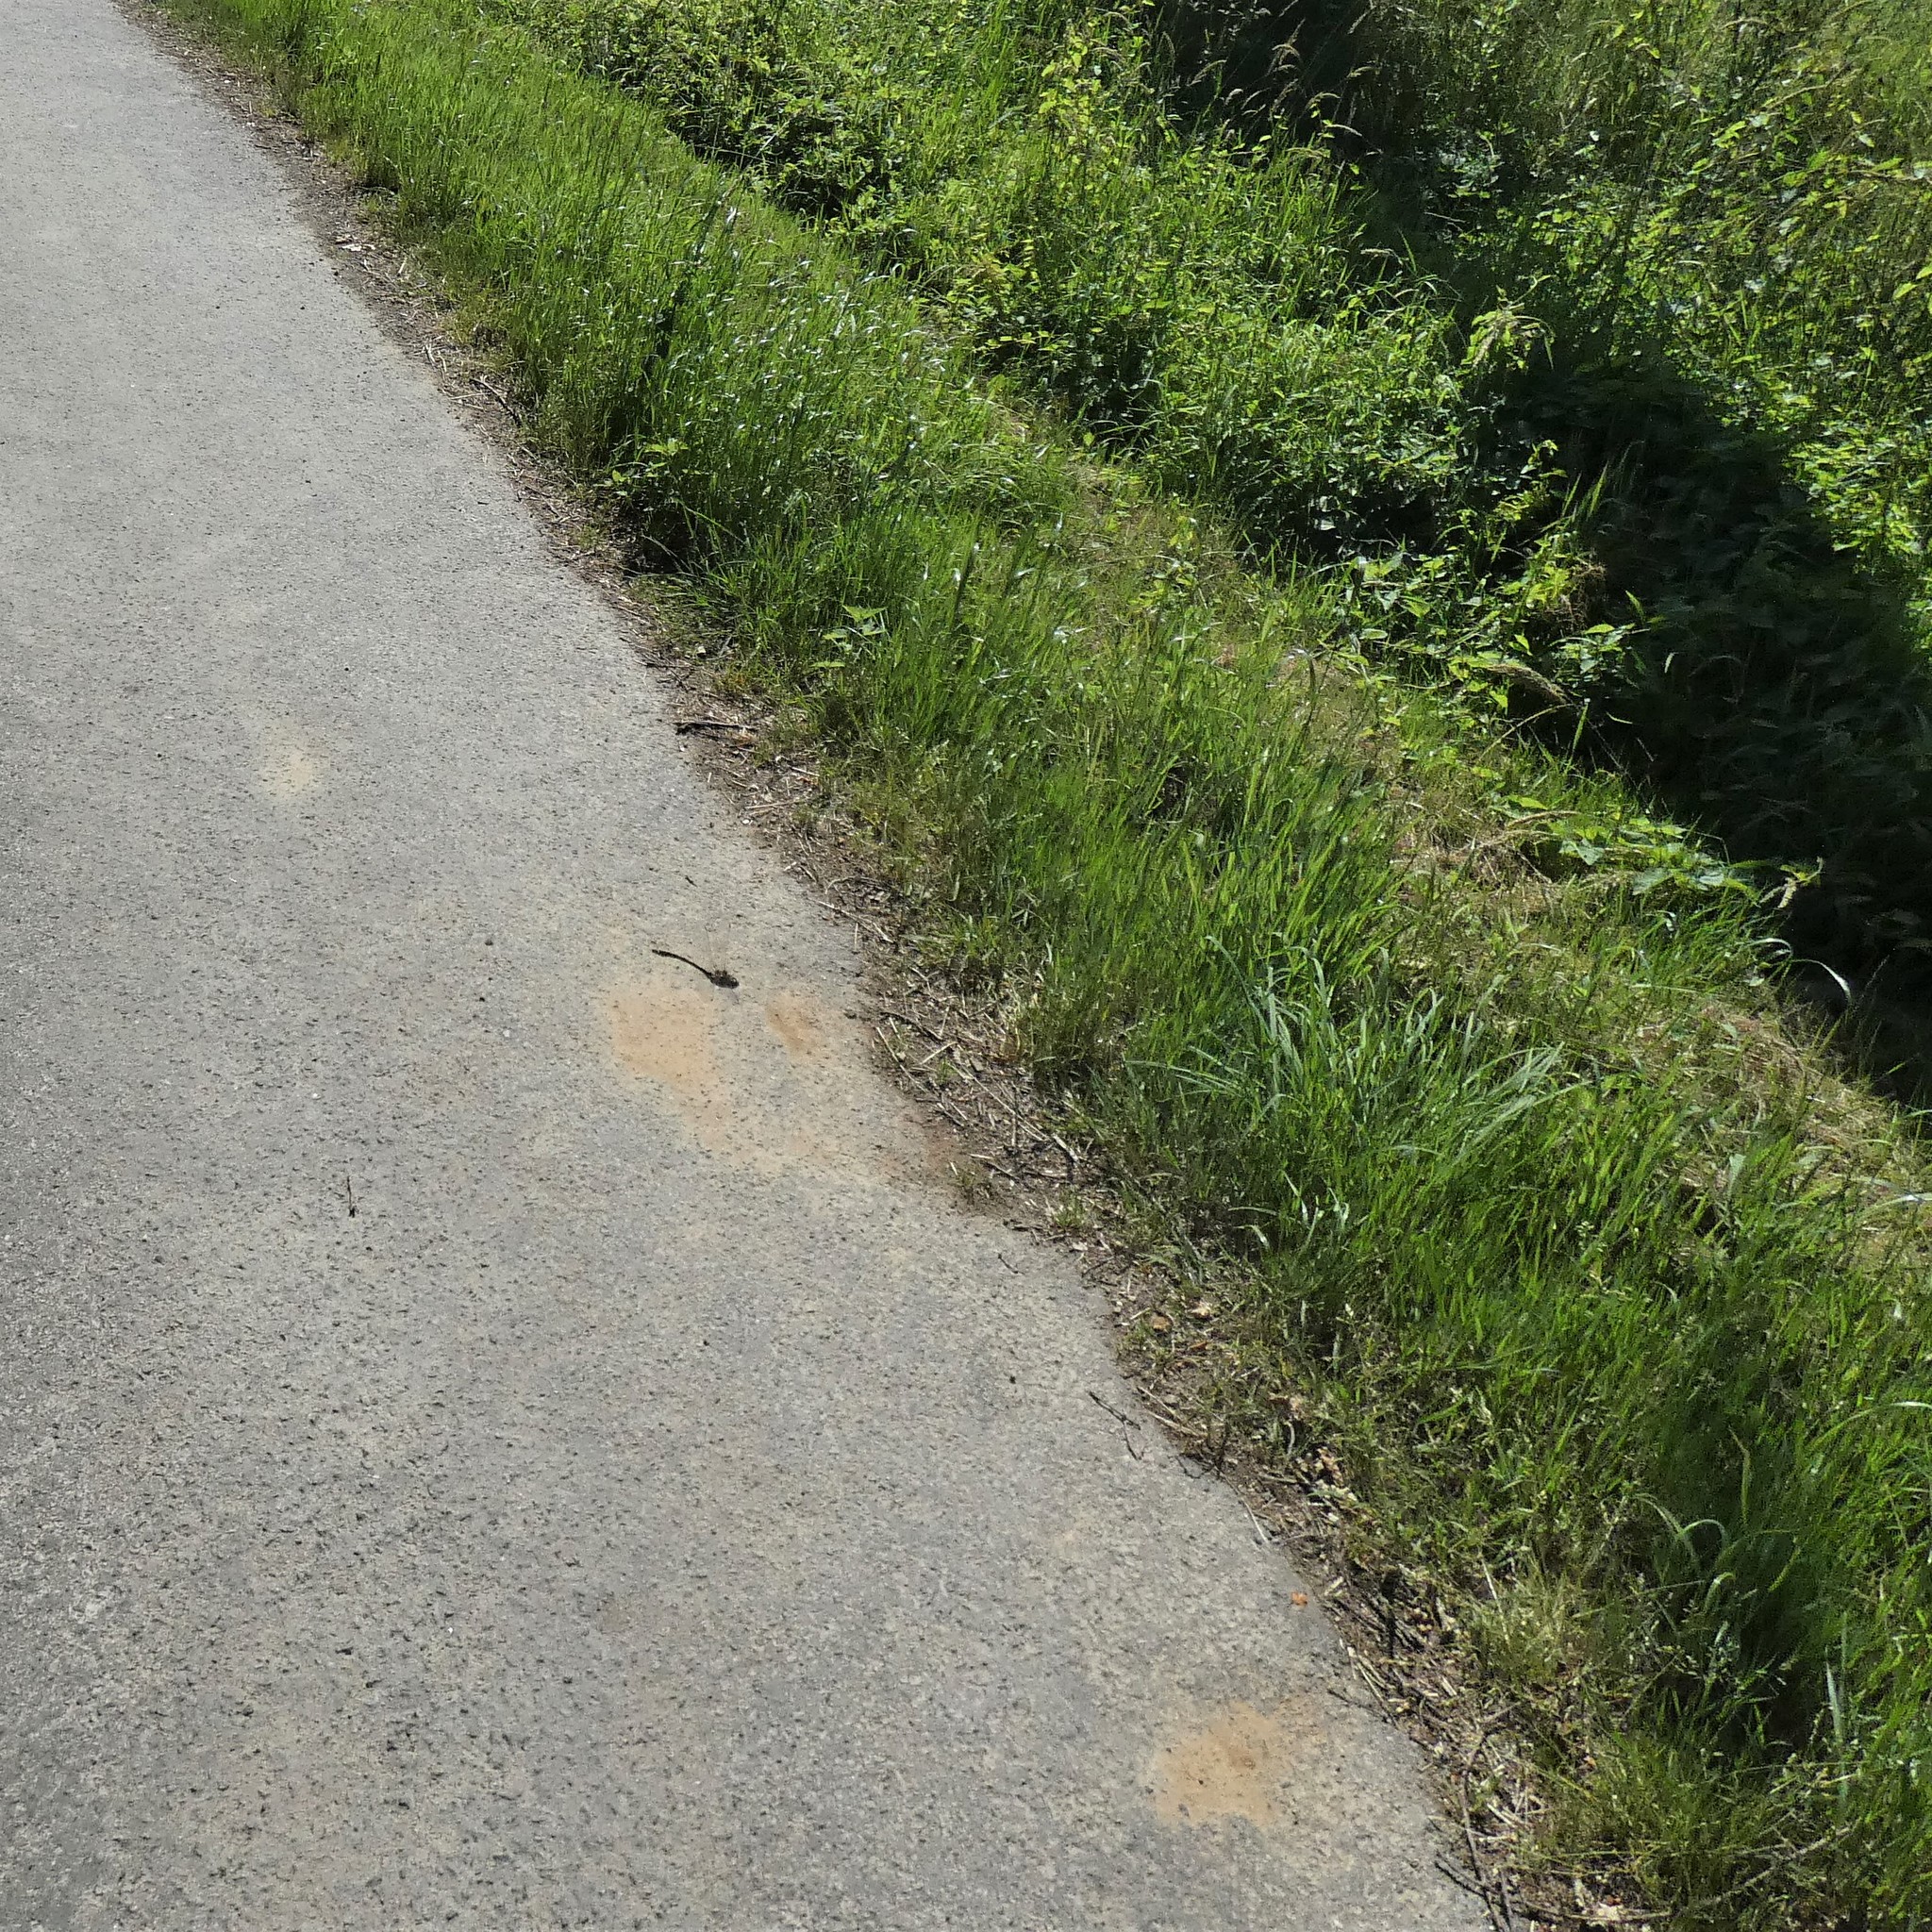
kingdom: Animalia
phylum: Arthropoda
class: Insecta
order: Odonata
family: Corduliidae
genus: Oxygastra
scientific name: Oxygastra curtisii
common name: Orange-spotted emerald
